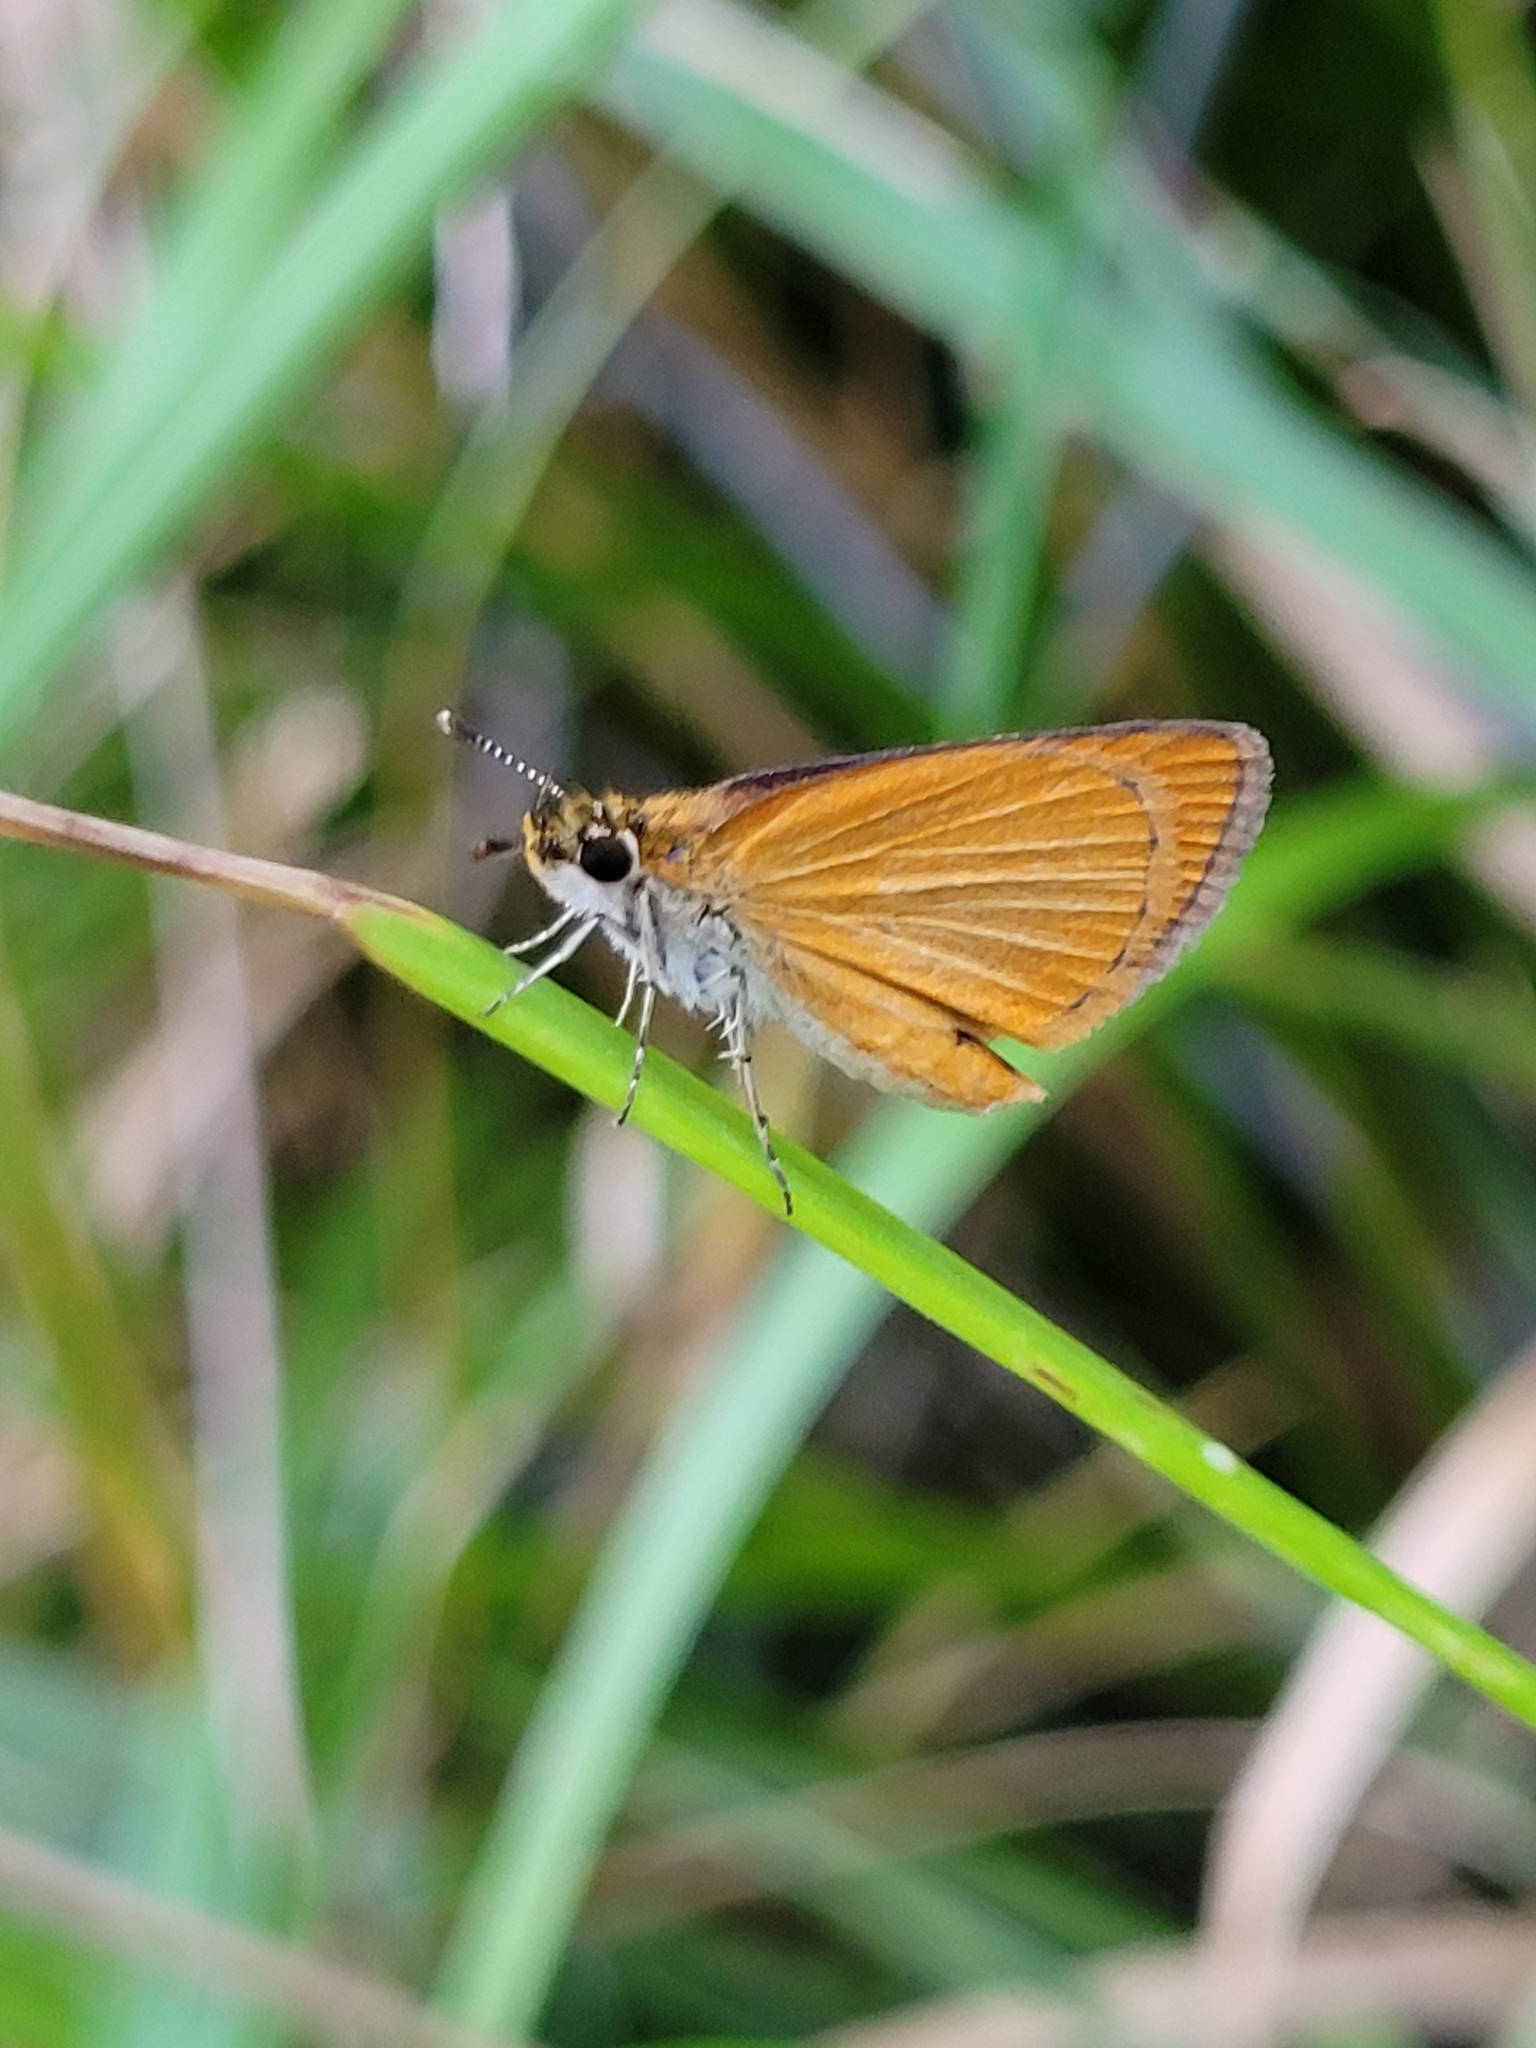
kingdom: Animalia
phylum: Arthropoda
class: Insecta
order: Lepidoptera
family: Hesperiidae
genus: Ancyloxypha
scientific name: Ancyloxypha numitor
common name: Least skipper
